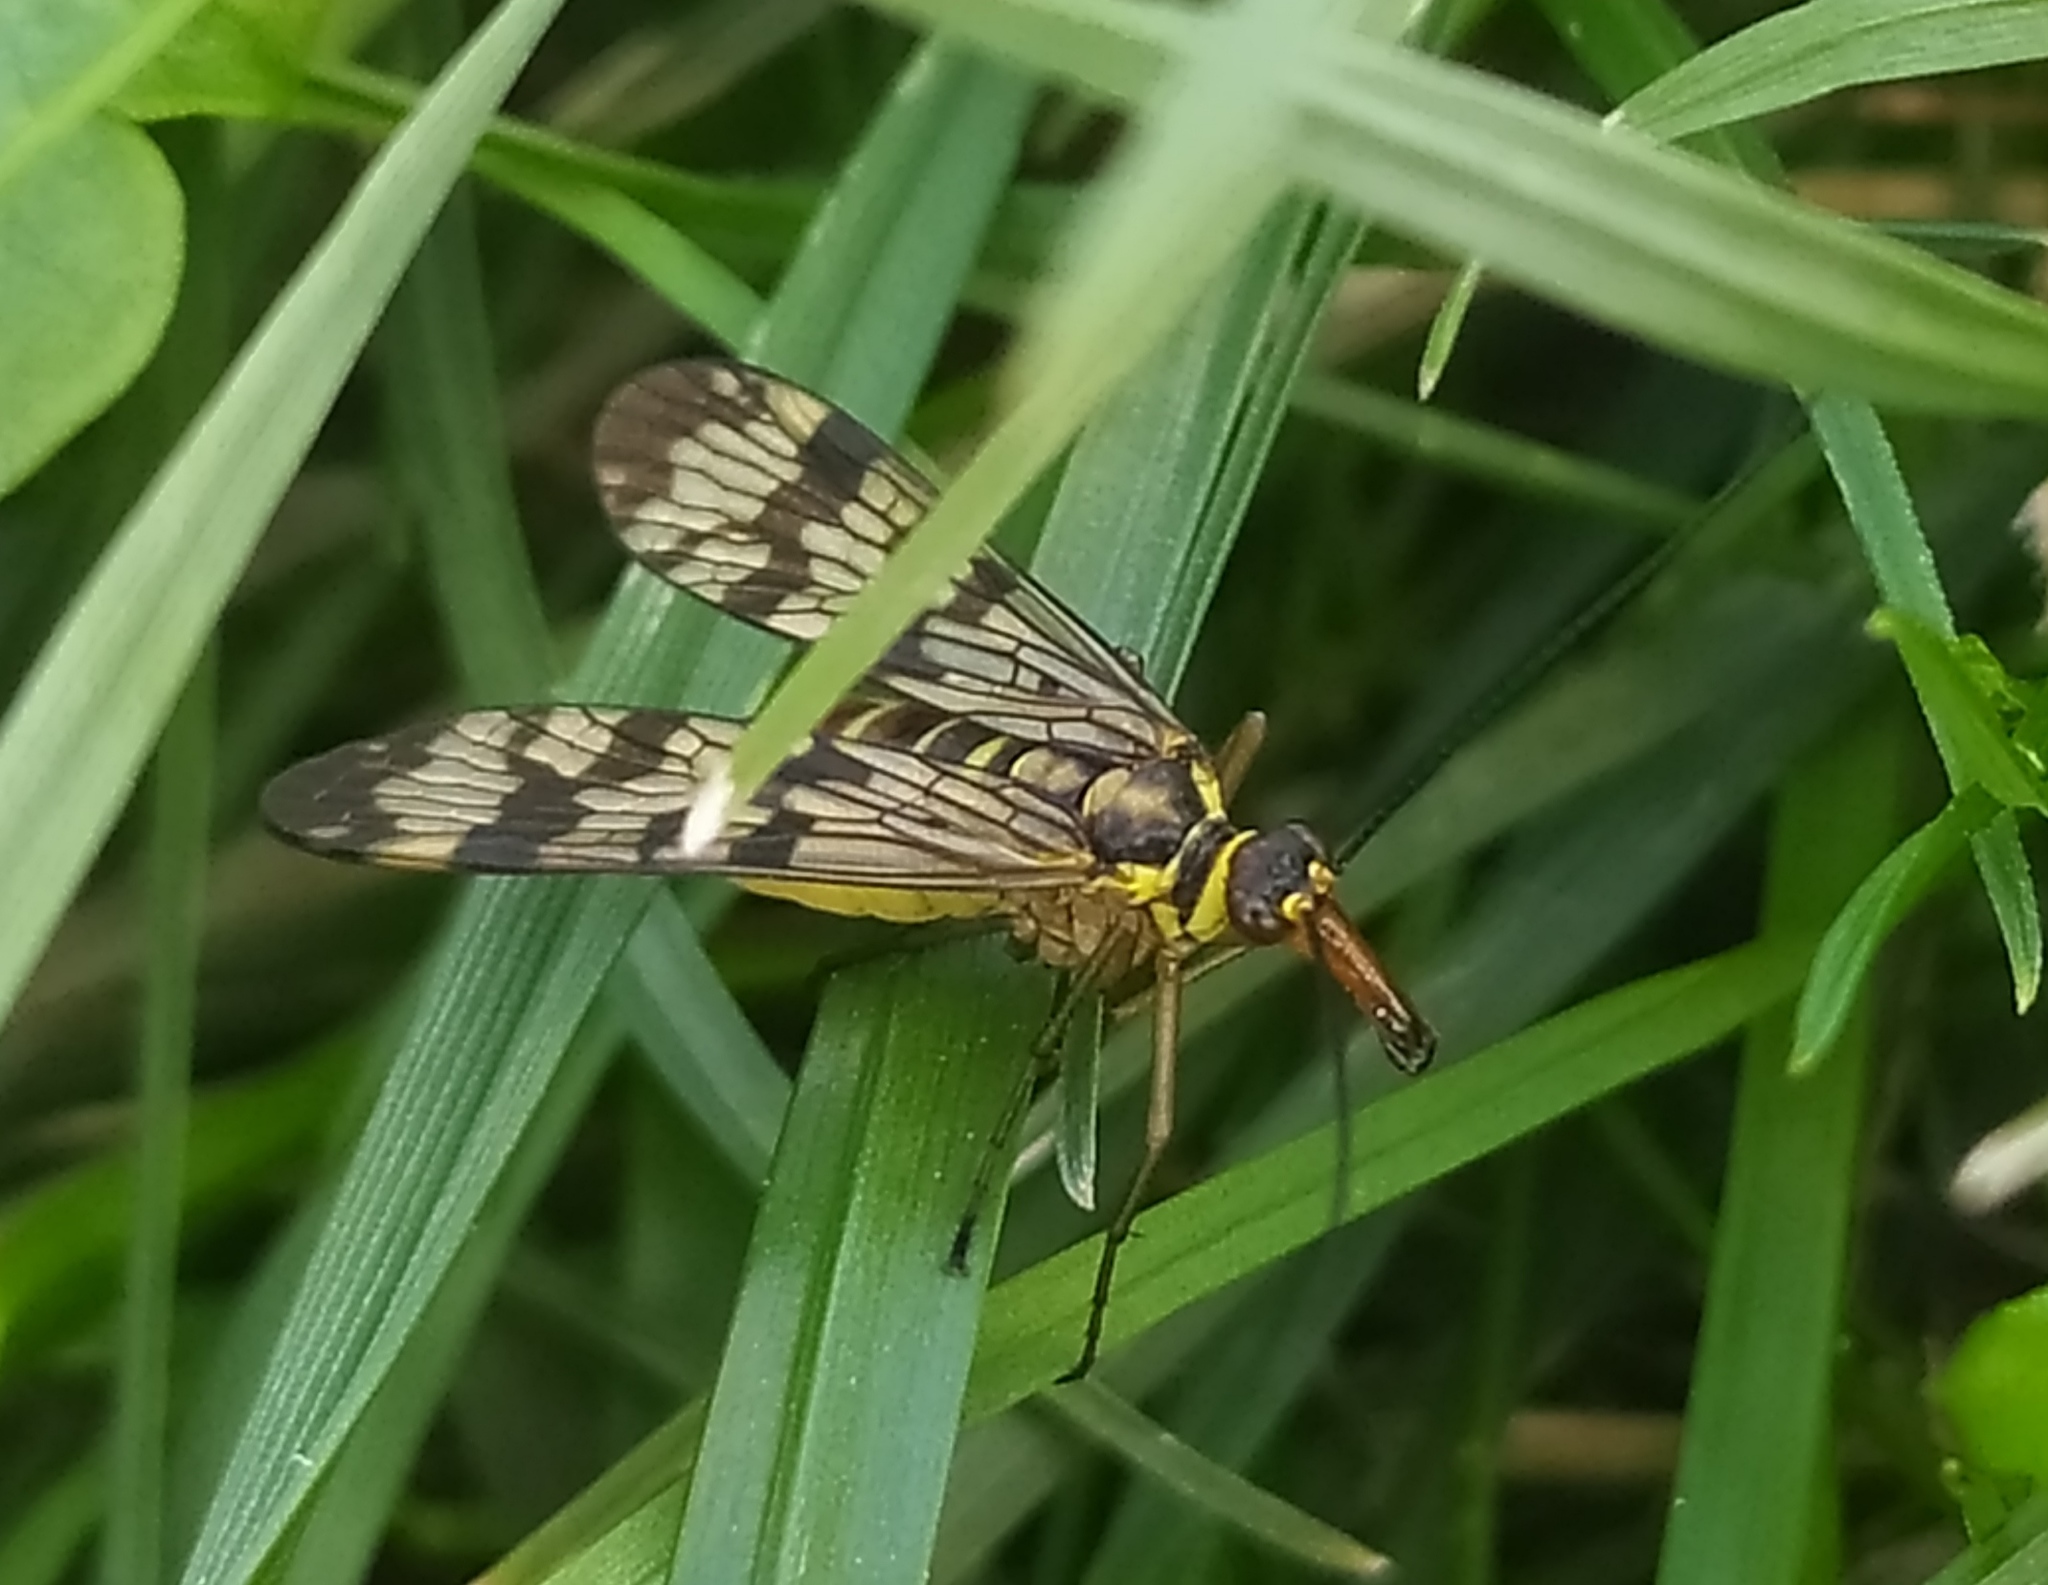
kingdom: Animalia
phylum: Arthropoda
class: Insecta
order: Mecoptera
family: Panorpidae
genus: Panorpa
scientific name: Panorpa communis
